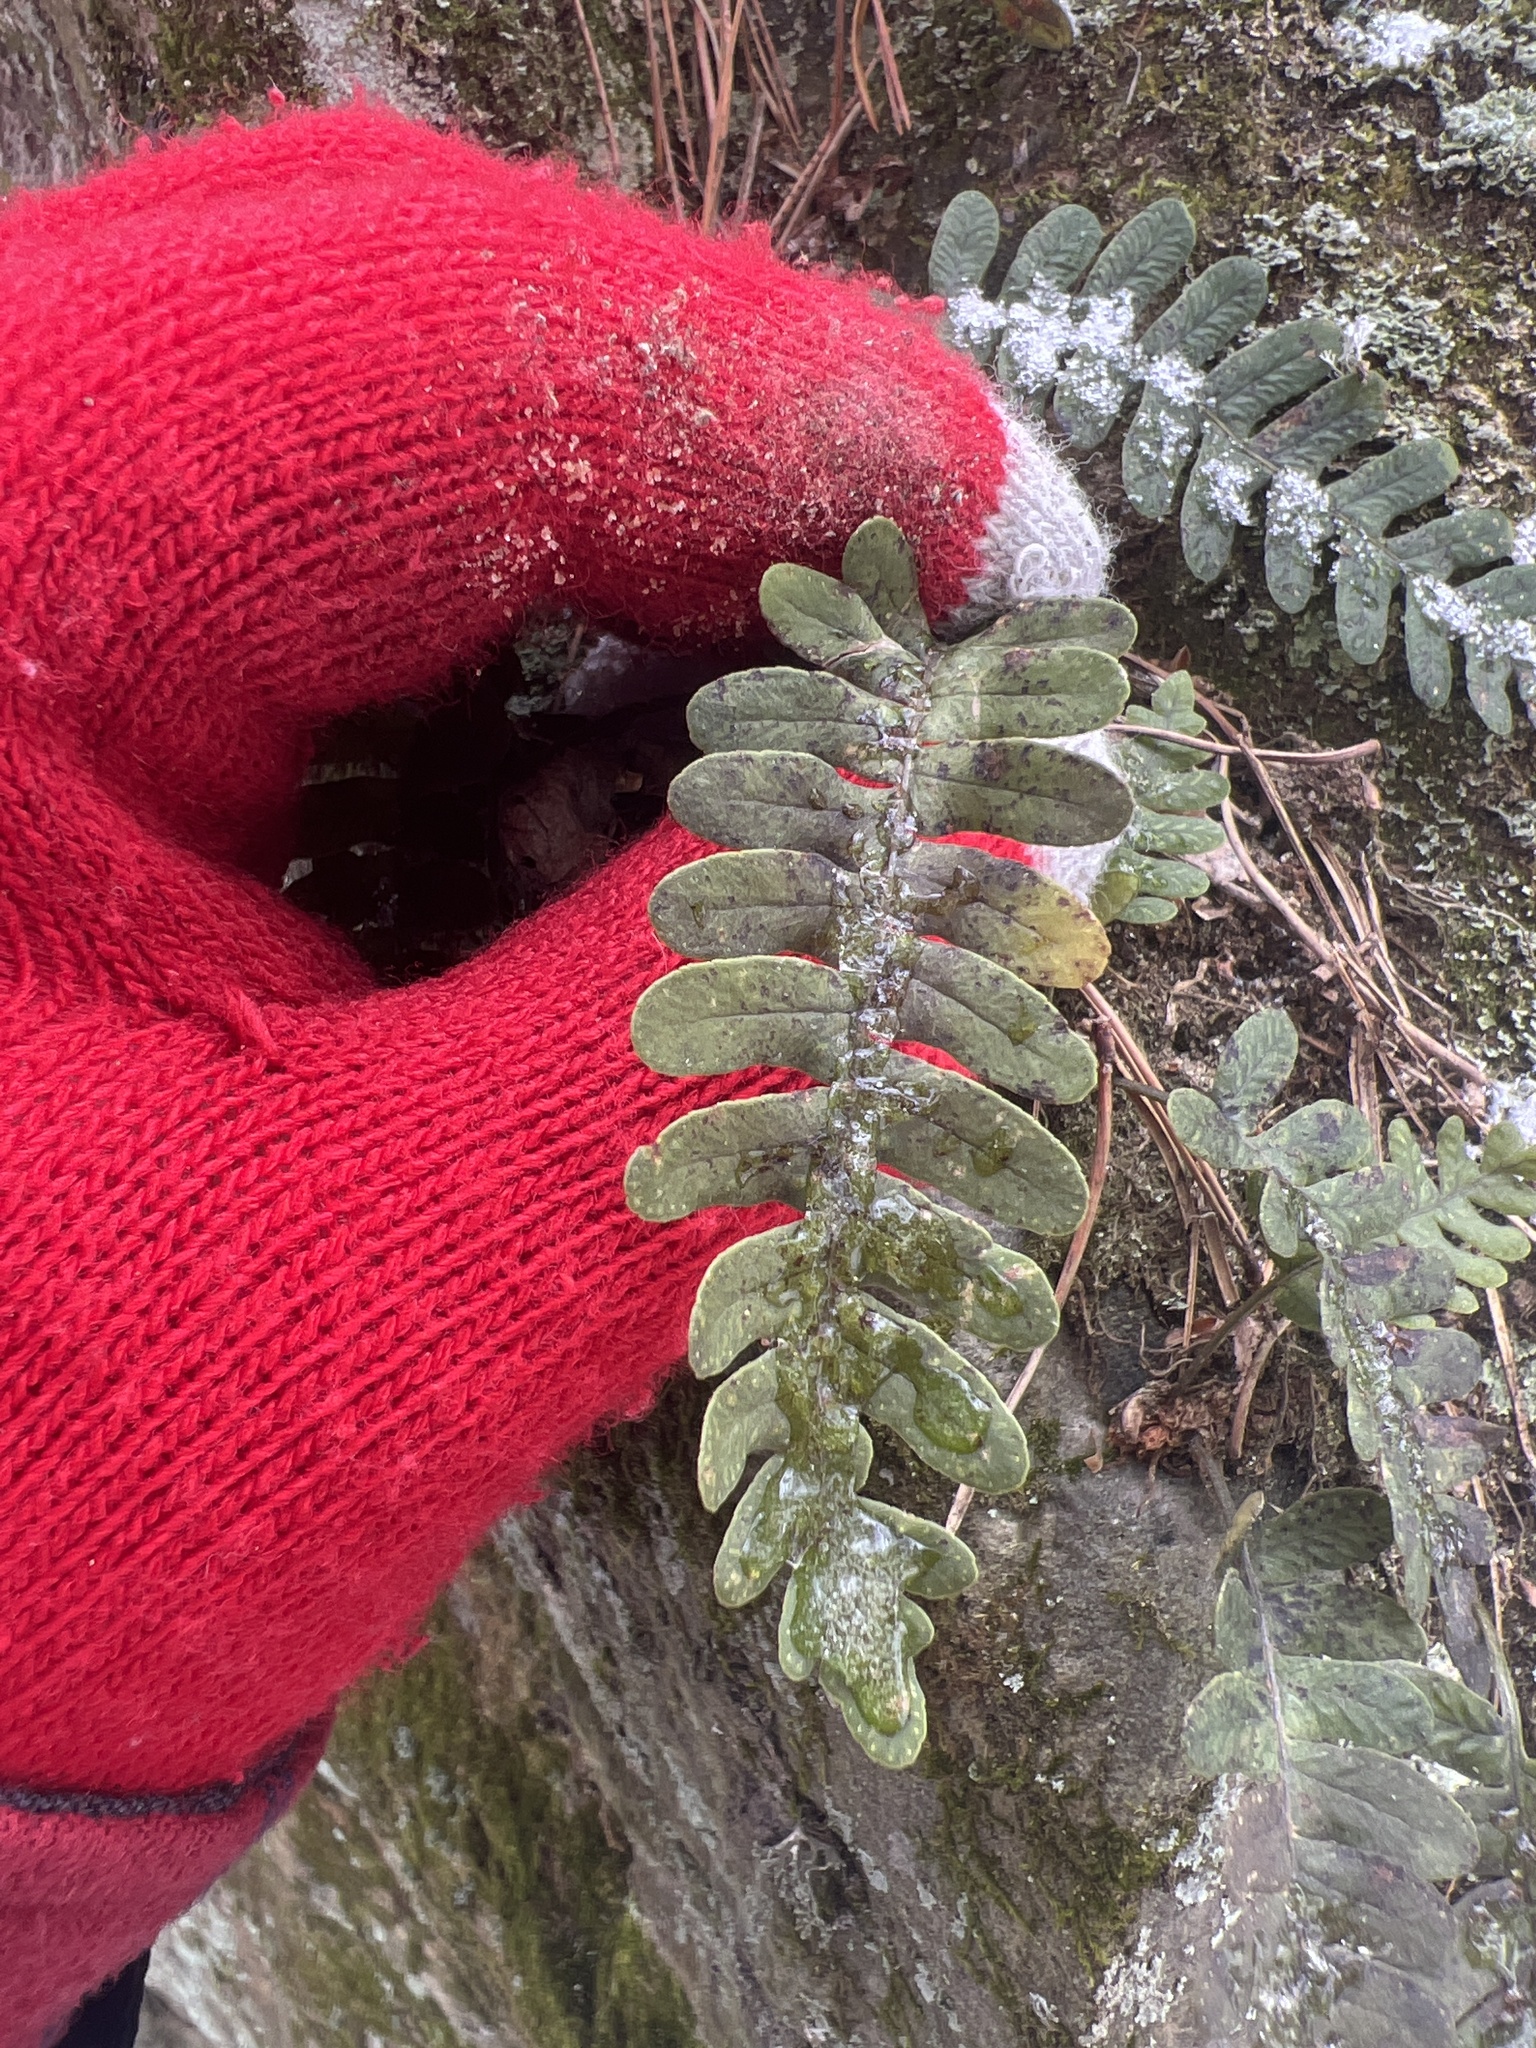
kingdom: Plantae
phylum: Tracheophyta
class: Polypodiopsida
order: Polypodiales
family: Polypodiaceae
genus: Polypodium
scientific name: Polypodium virginianum
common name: American wall fern
